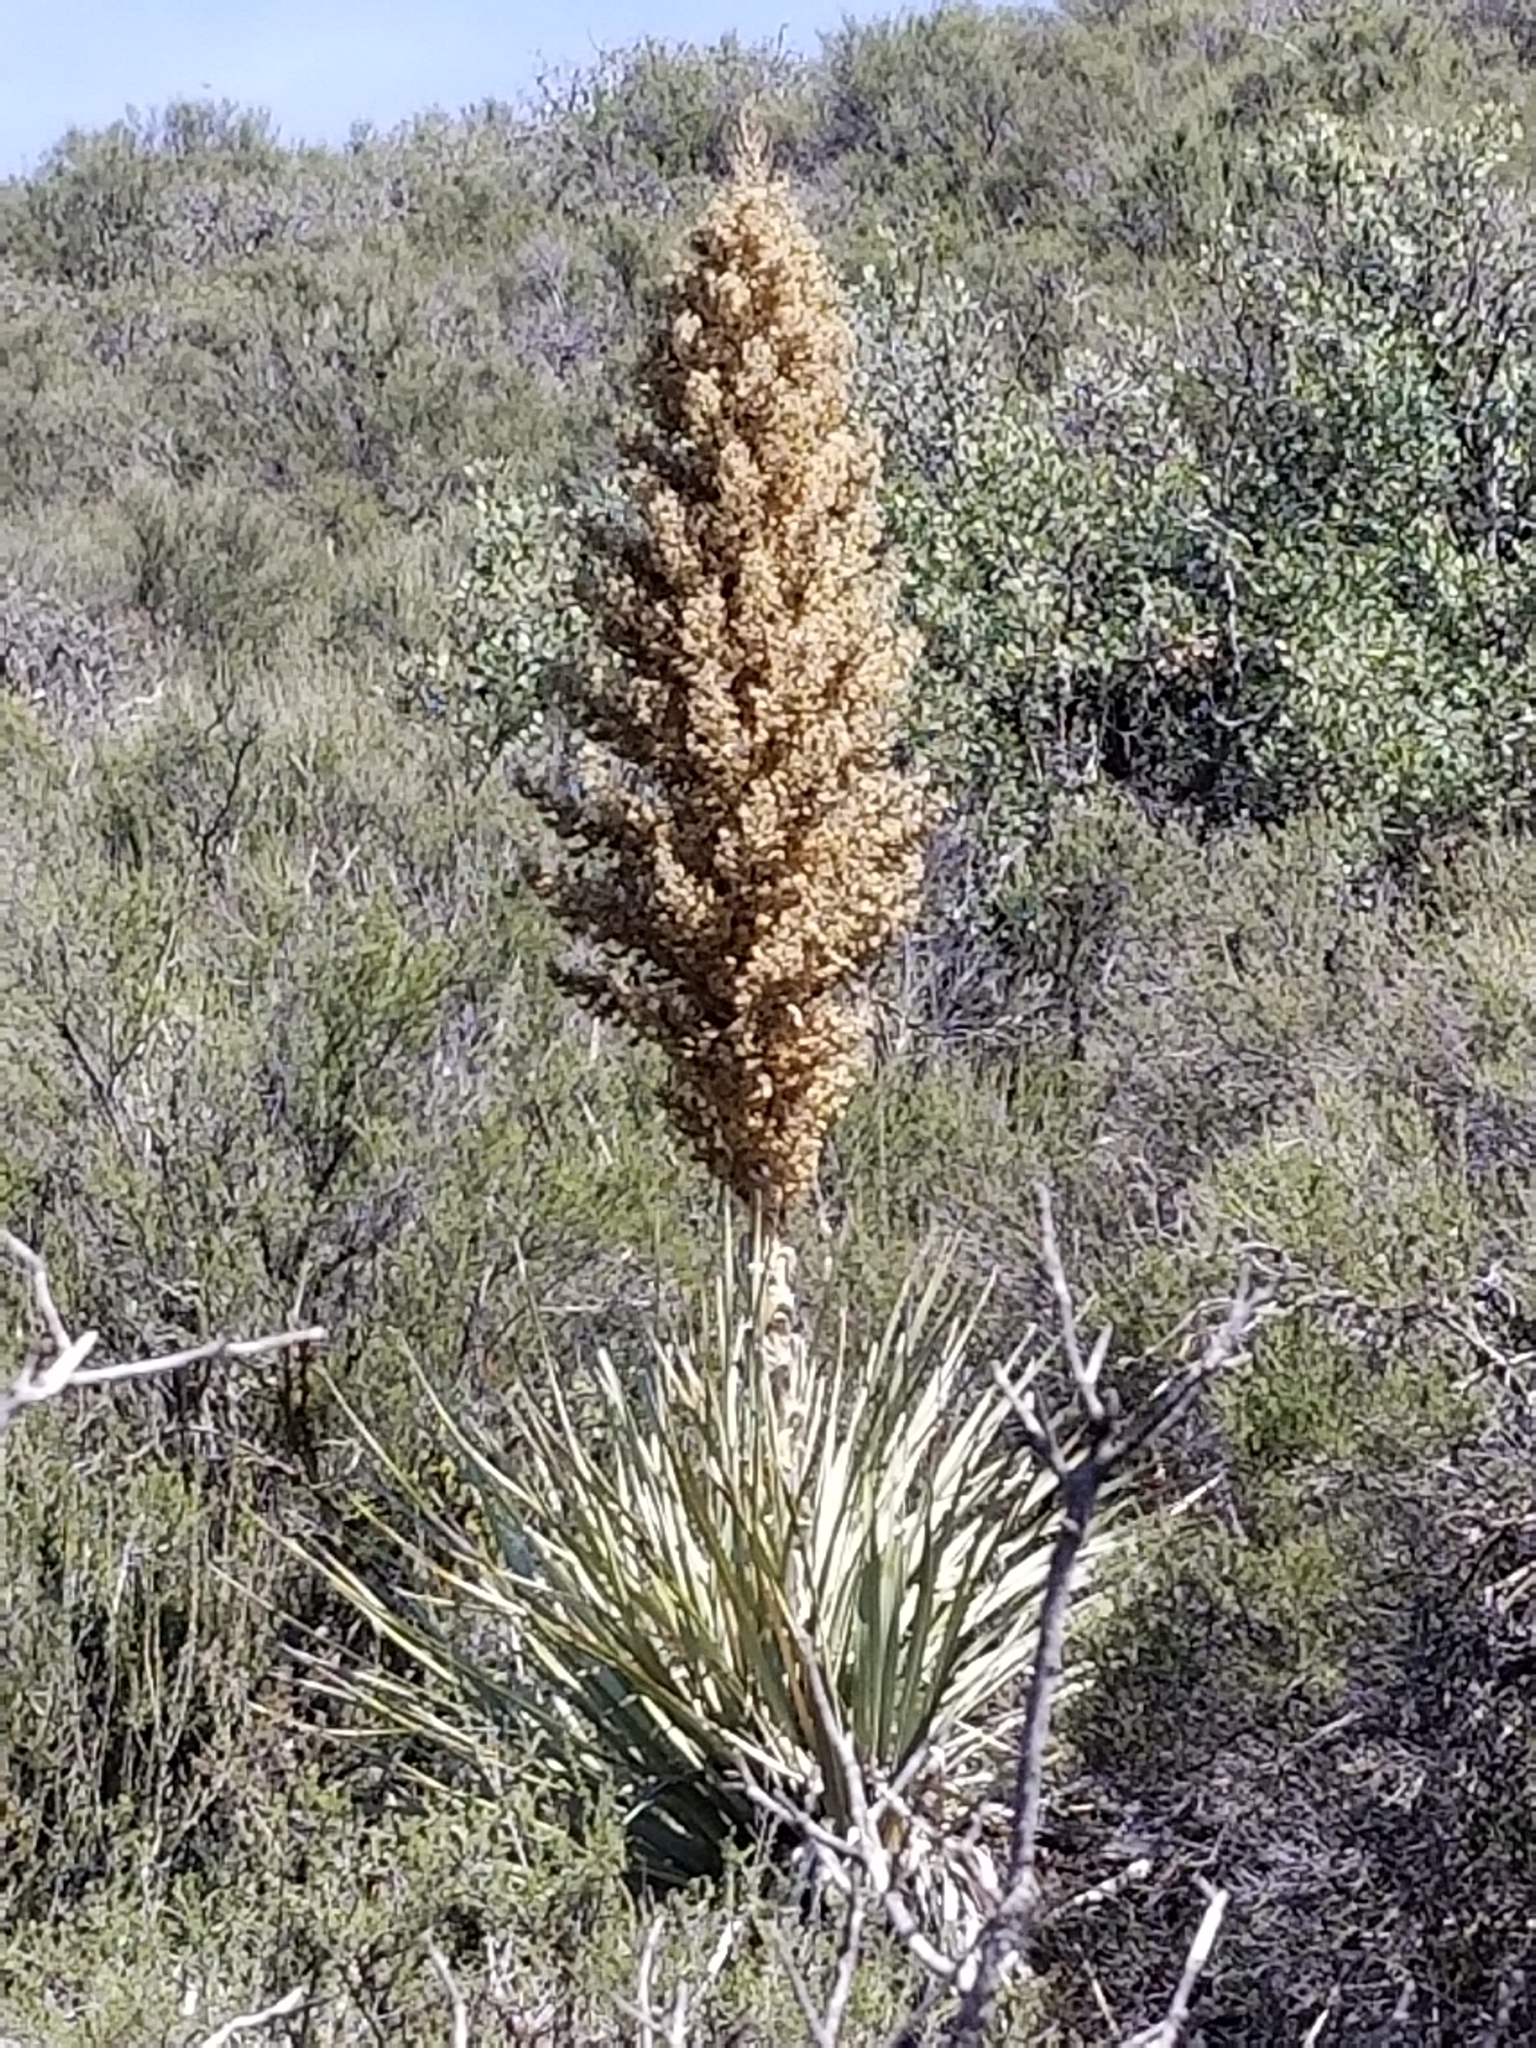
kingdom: Plantae
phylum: Tracheophyta
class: Liliopsida
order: Asparagales
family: Asparagaceae
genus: Nolina
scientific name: Nolina parryi
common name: Parry nolina
